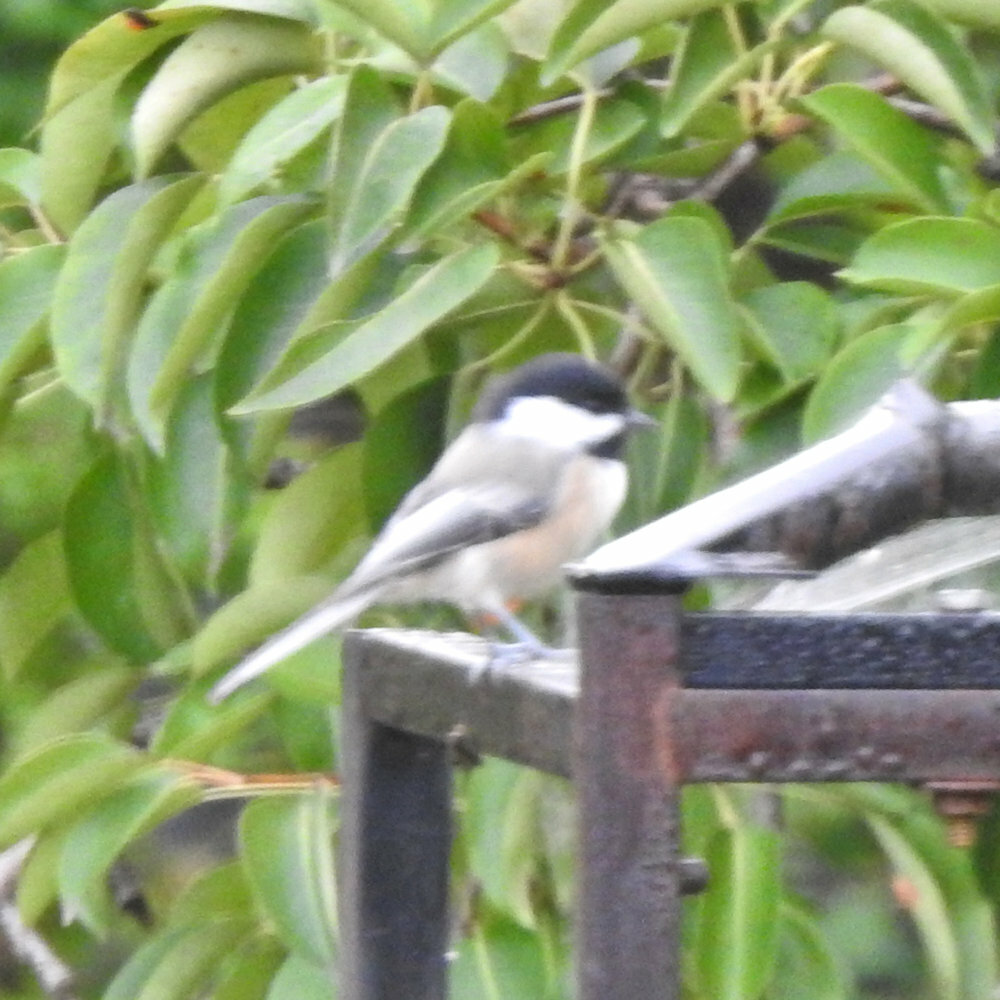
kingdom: Animalia
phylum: Chordata
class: Aves
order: Passeriformes
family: Paridae
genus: Poecile
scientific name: Poecile atricapillus
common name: Black-capped chickadee
